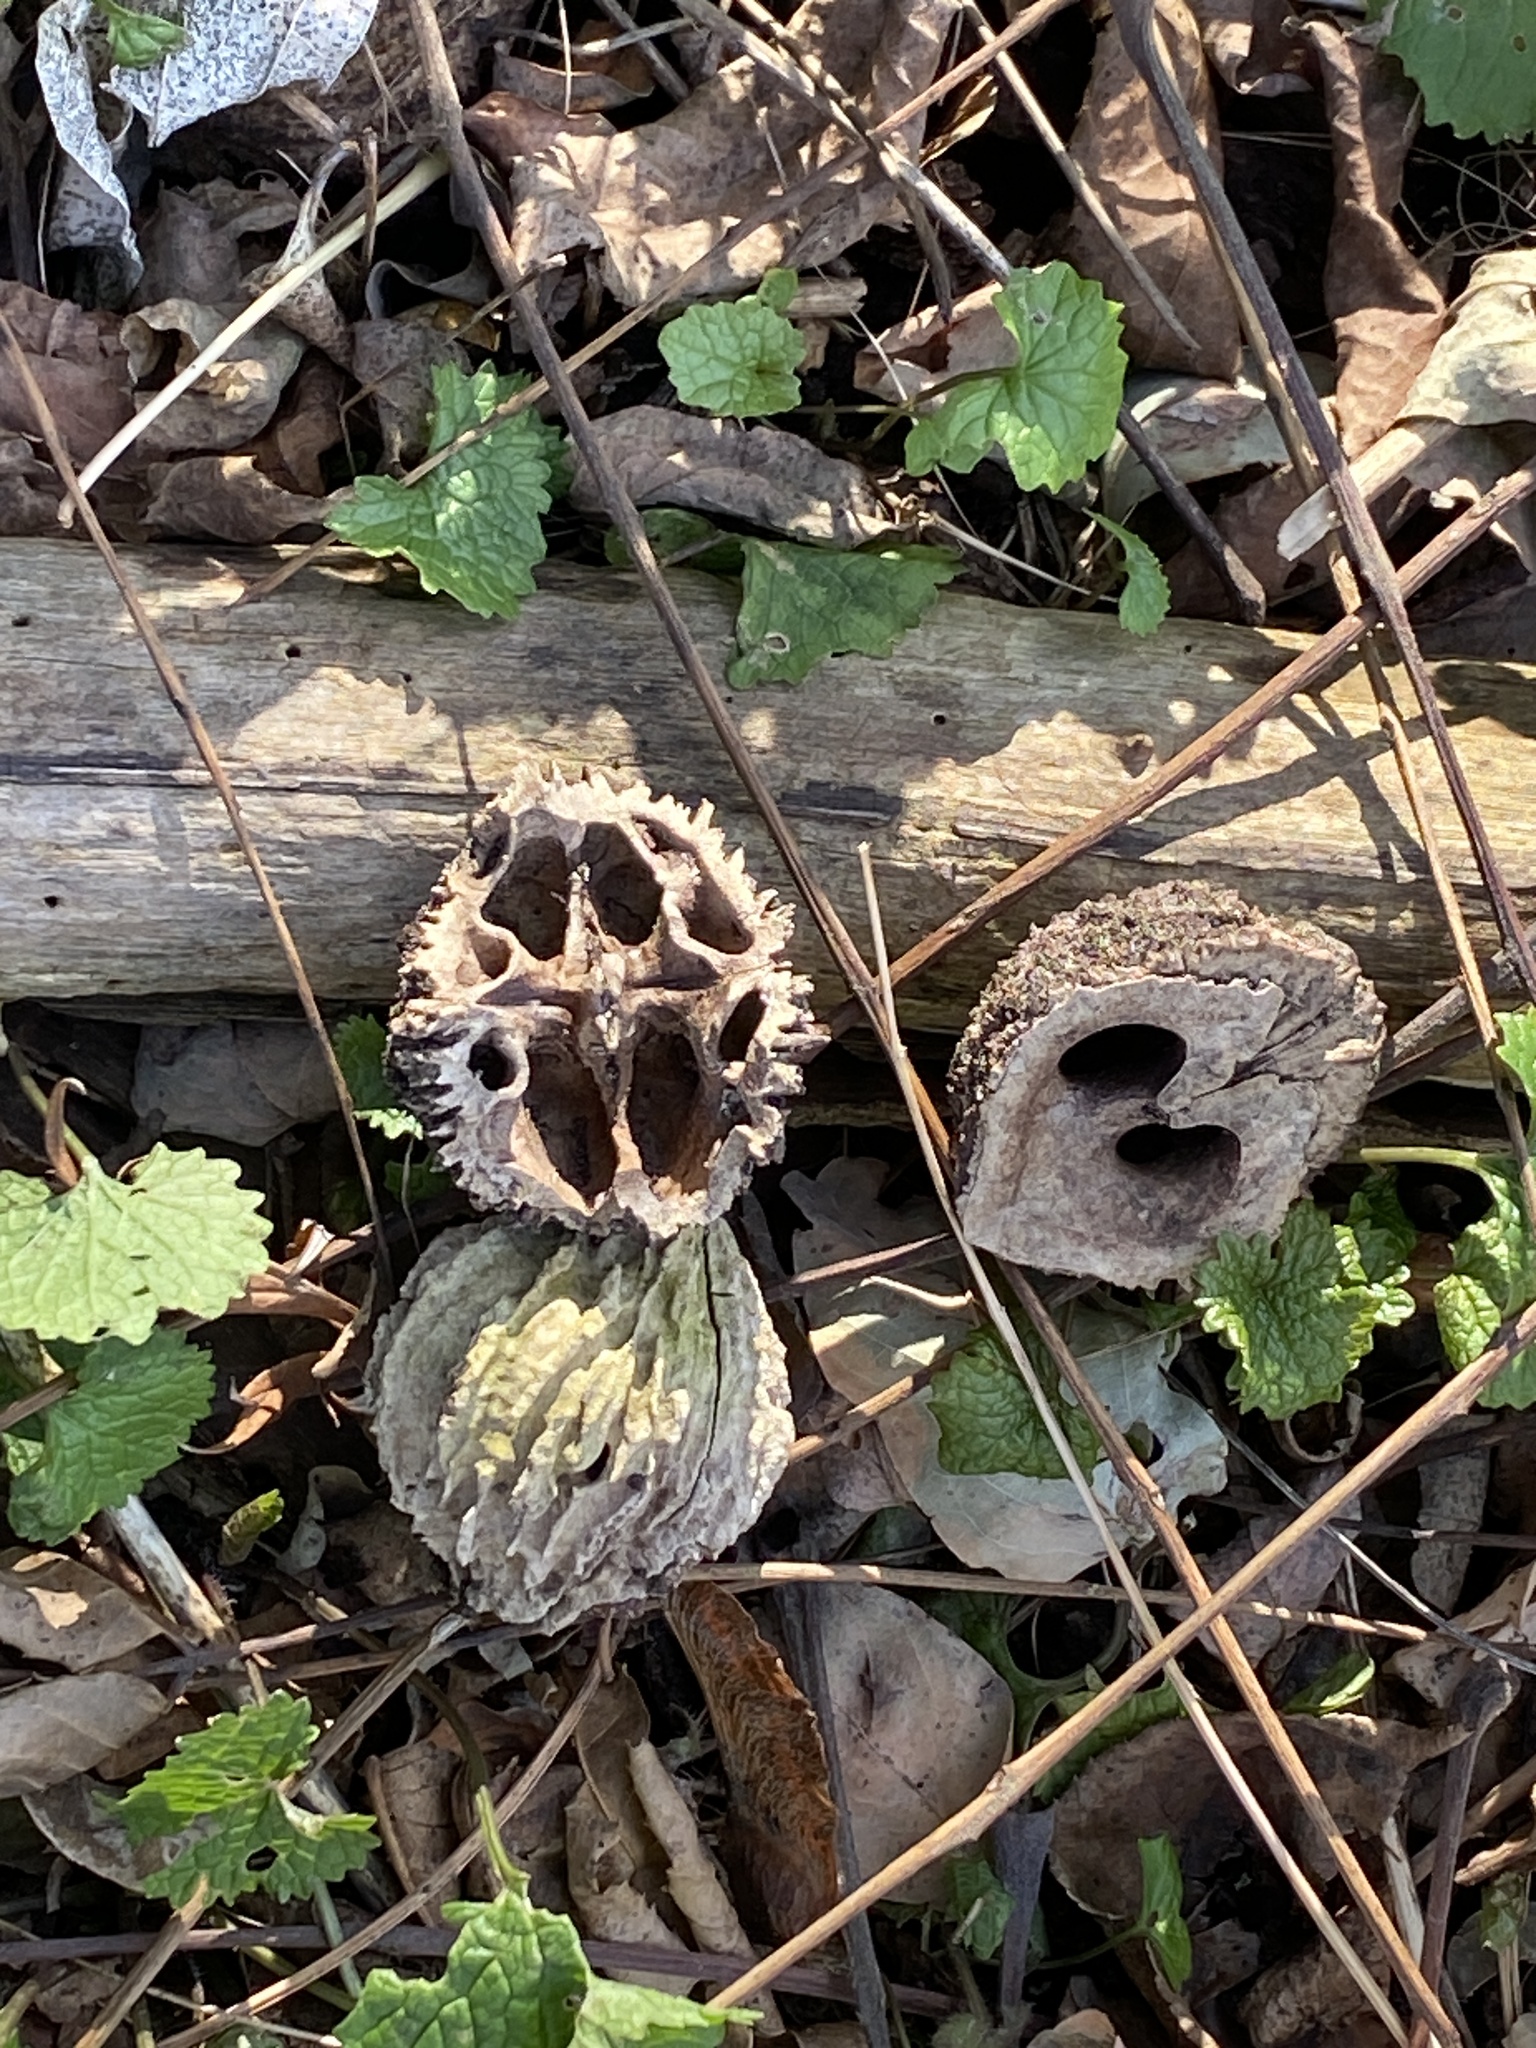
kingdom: Plantae
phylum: Tracheophyta
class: Magnoliopsida
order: Fagales
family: Juglandaceae
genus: Juglans
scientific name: Juglans nigra
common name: Black walnut
